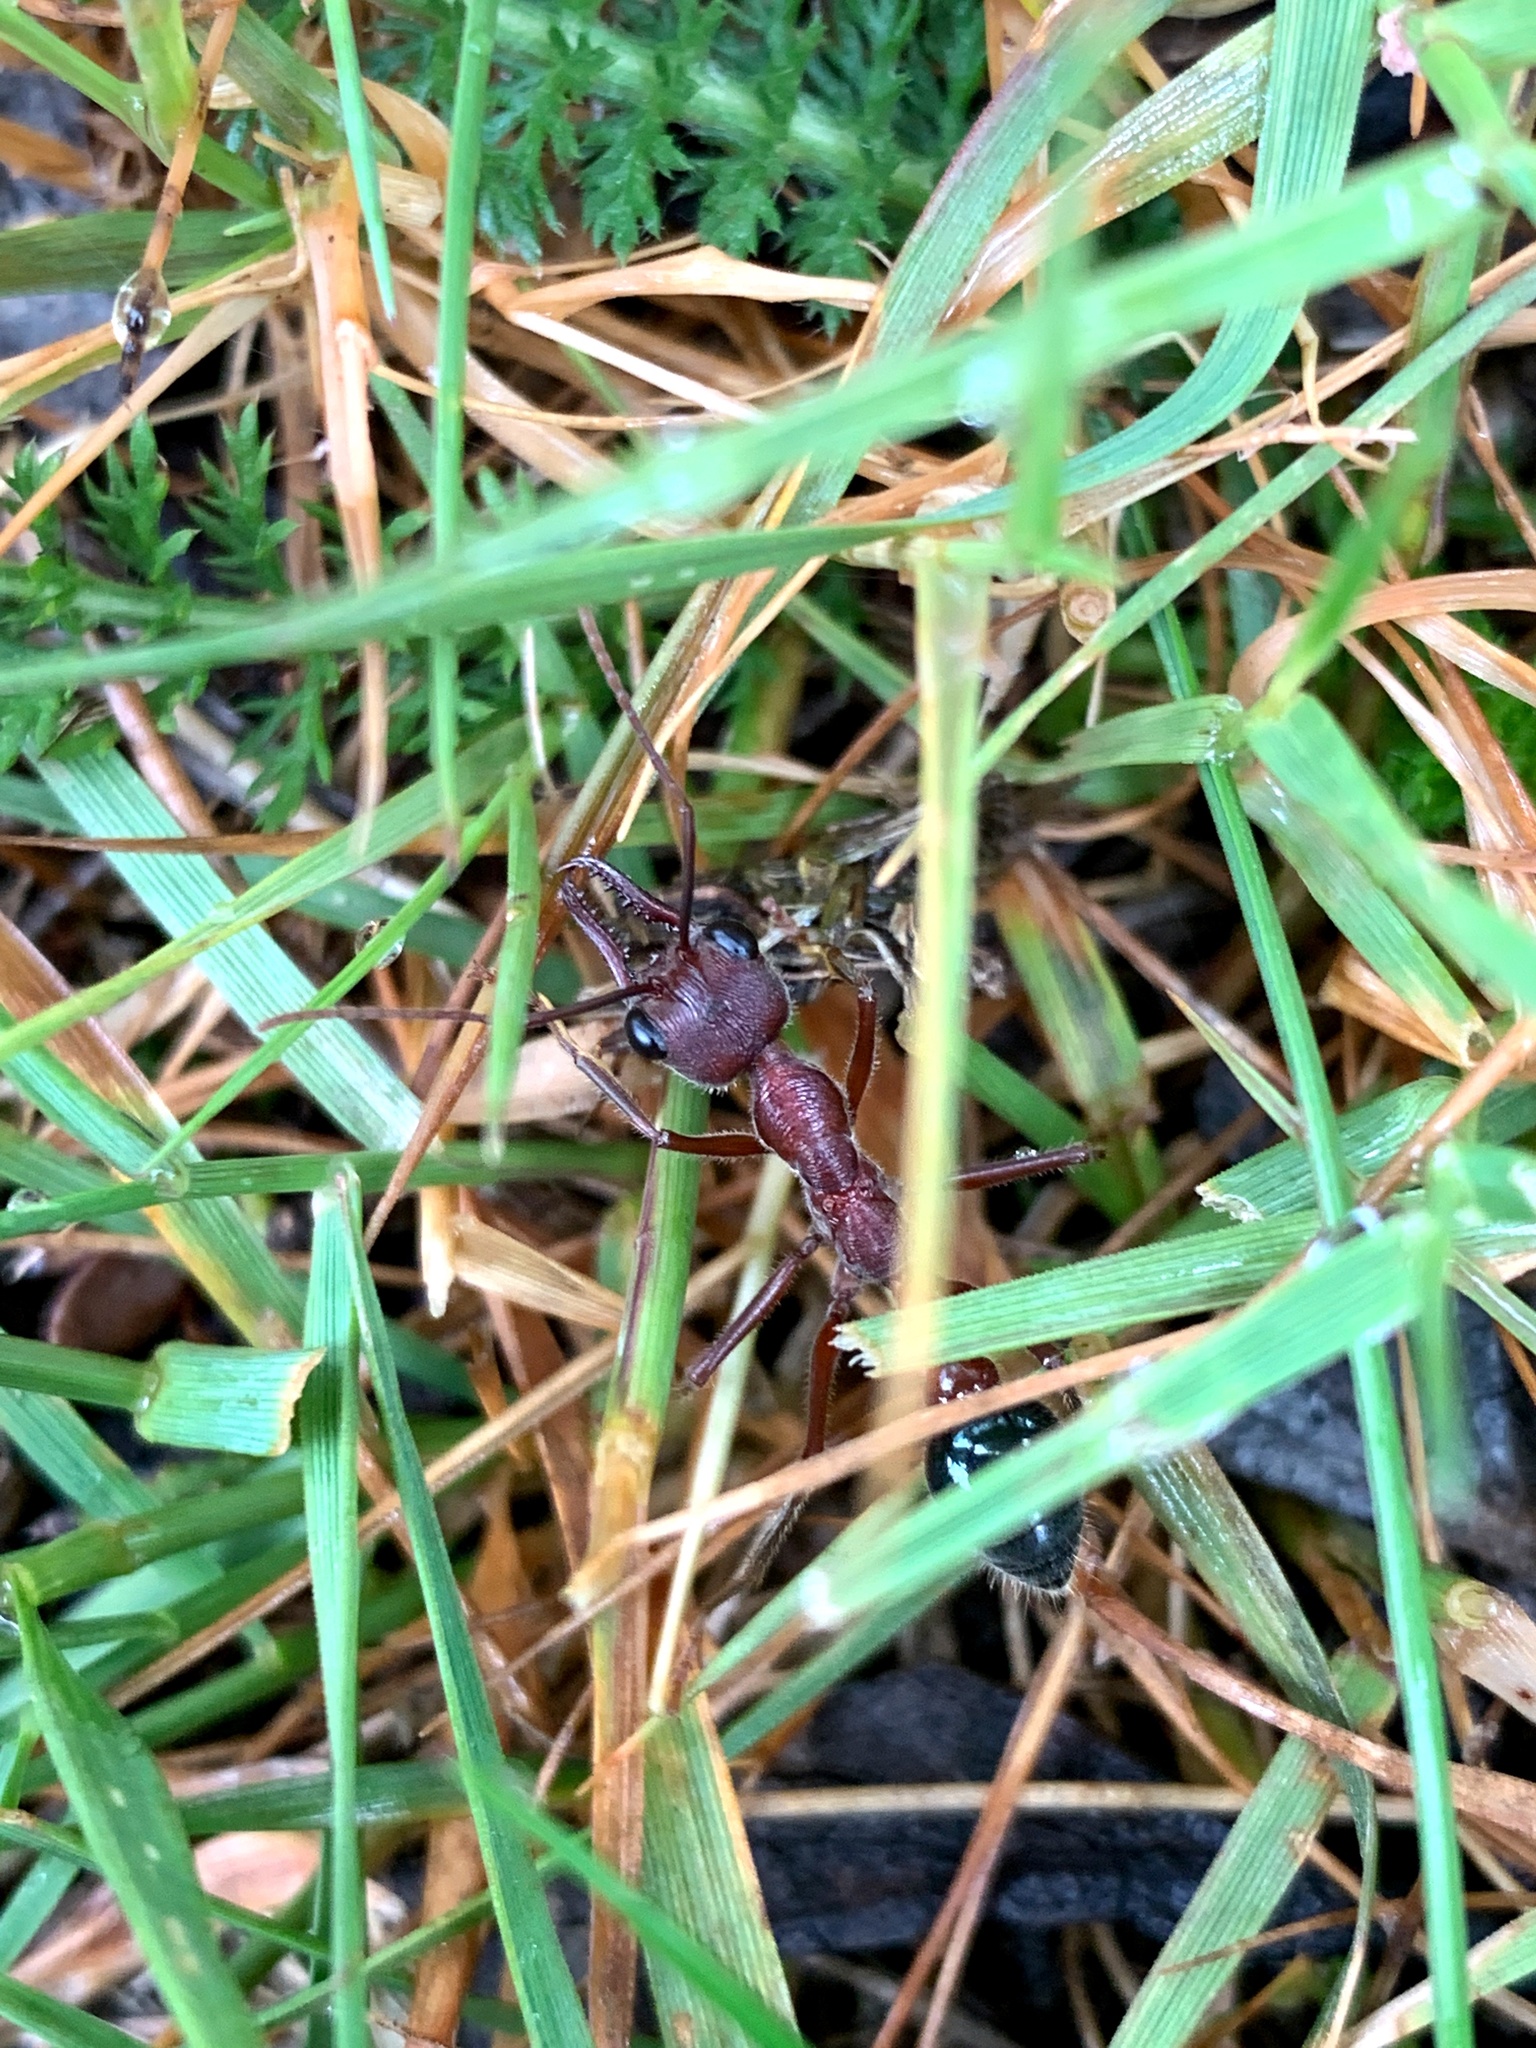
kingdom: Animalia
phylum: Arthropoda
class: Insecta
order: Hymenoptera
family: Formicidae
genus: Myrmecia
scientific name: Myrmecia forficata
